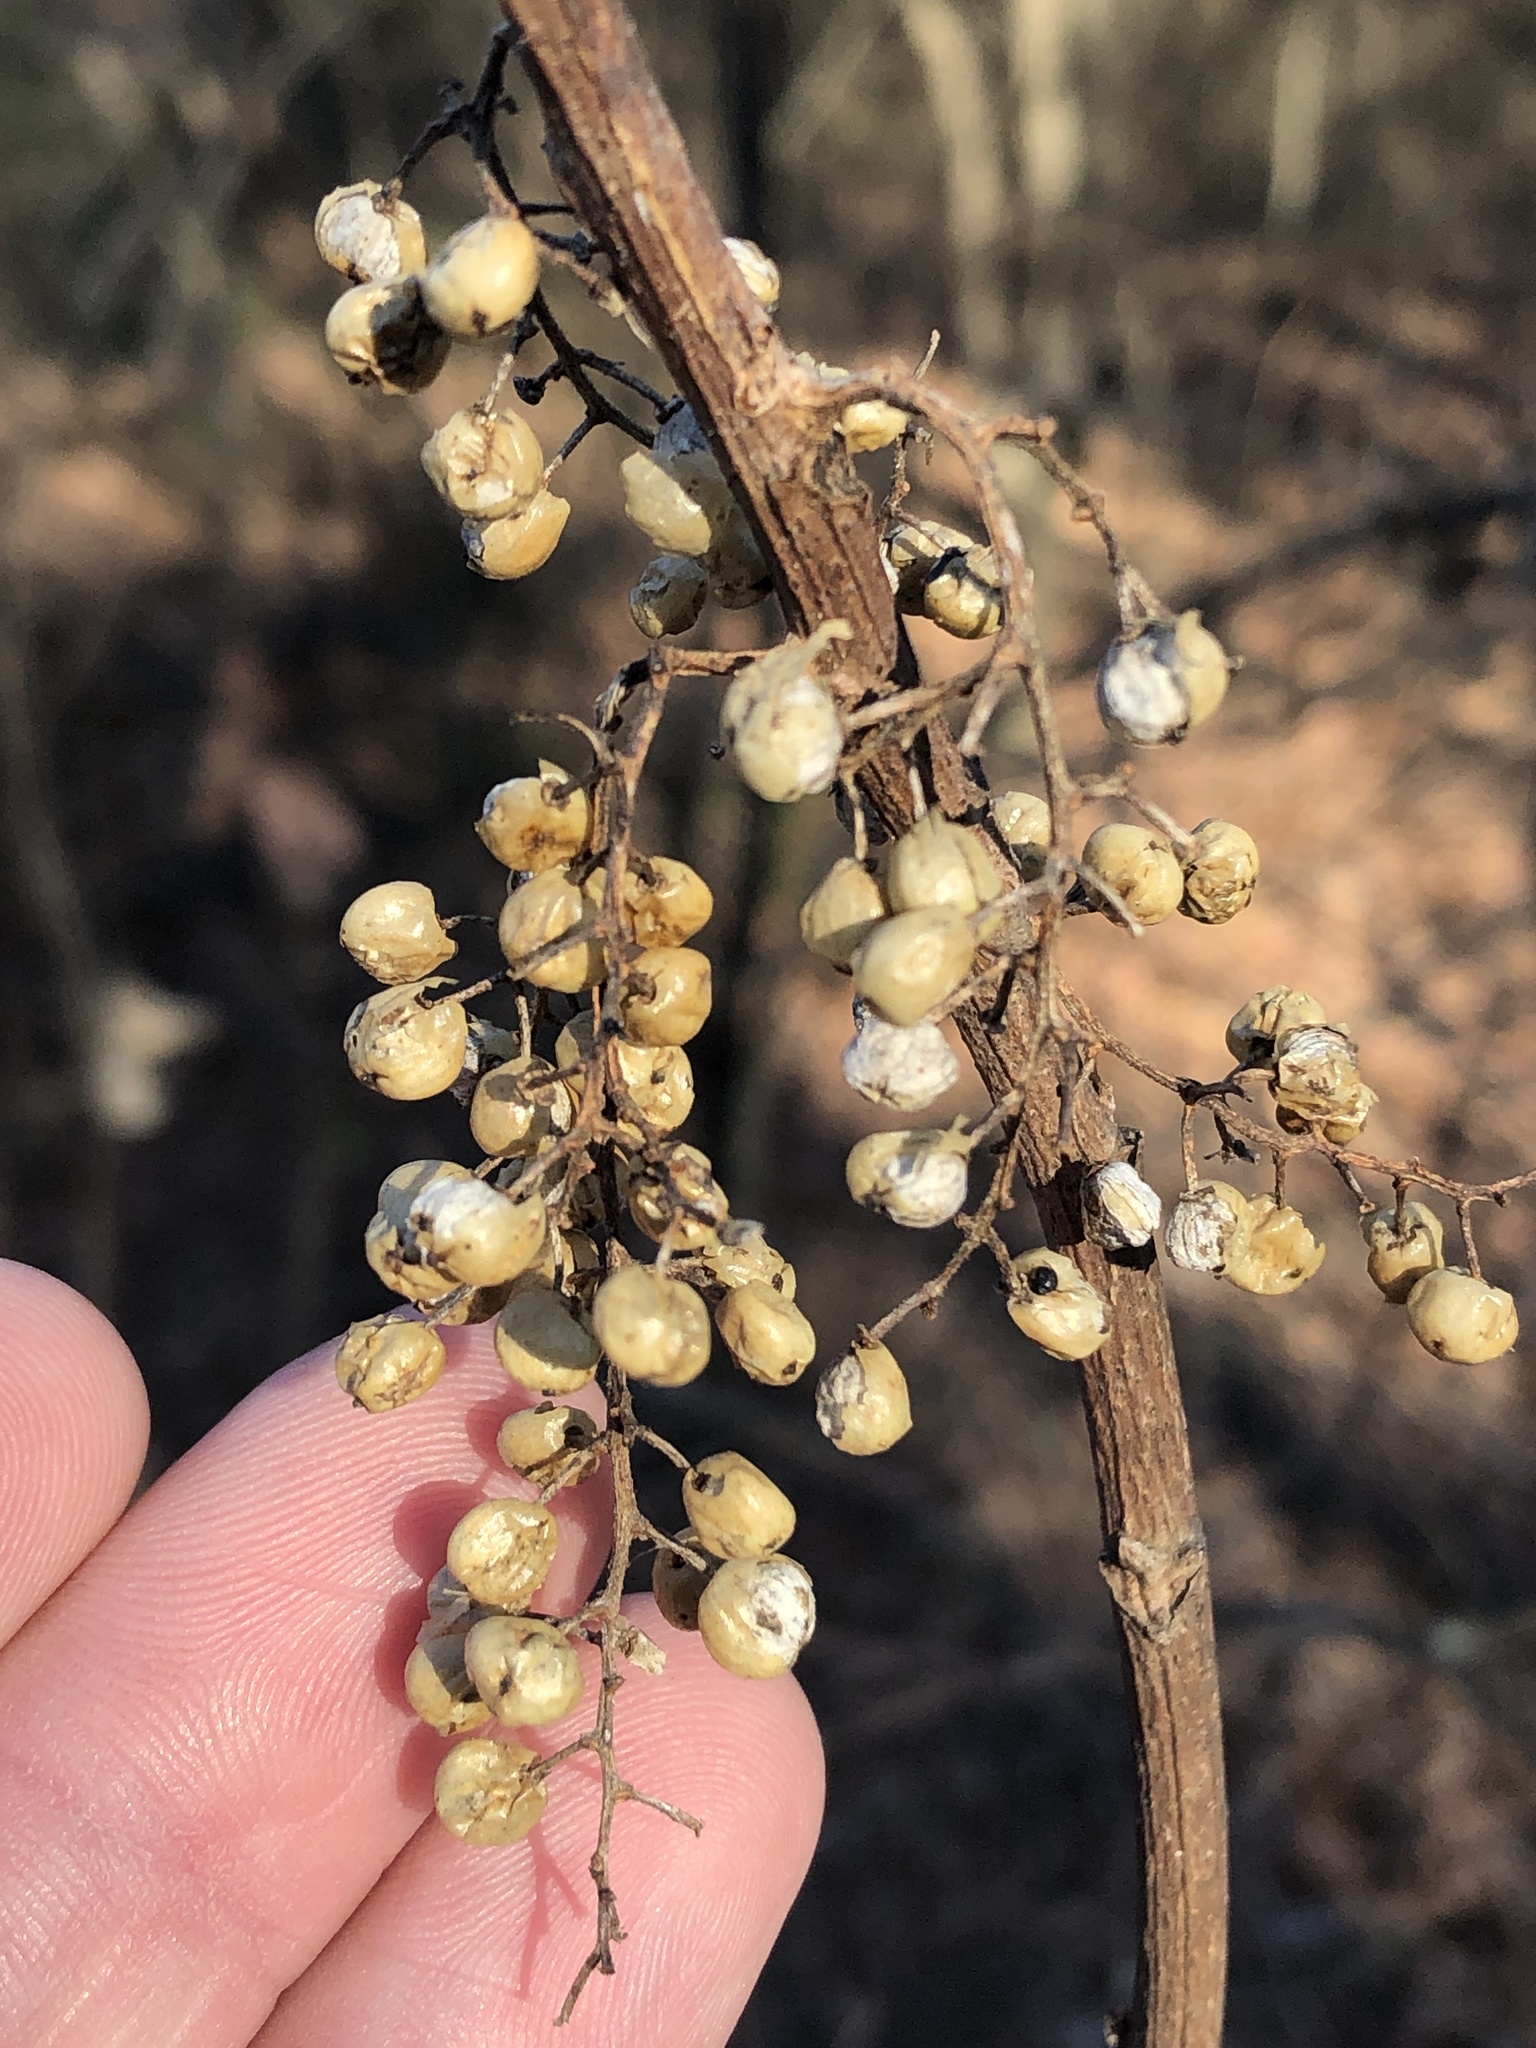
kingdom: Plantae
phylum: Tracheophyta
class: Magnoliopsida
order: Sapindales
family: Anacardiaceae
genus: Toxicodendron
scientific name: Toxicodendron radicans
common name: Poison ivy
